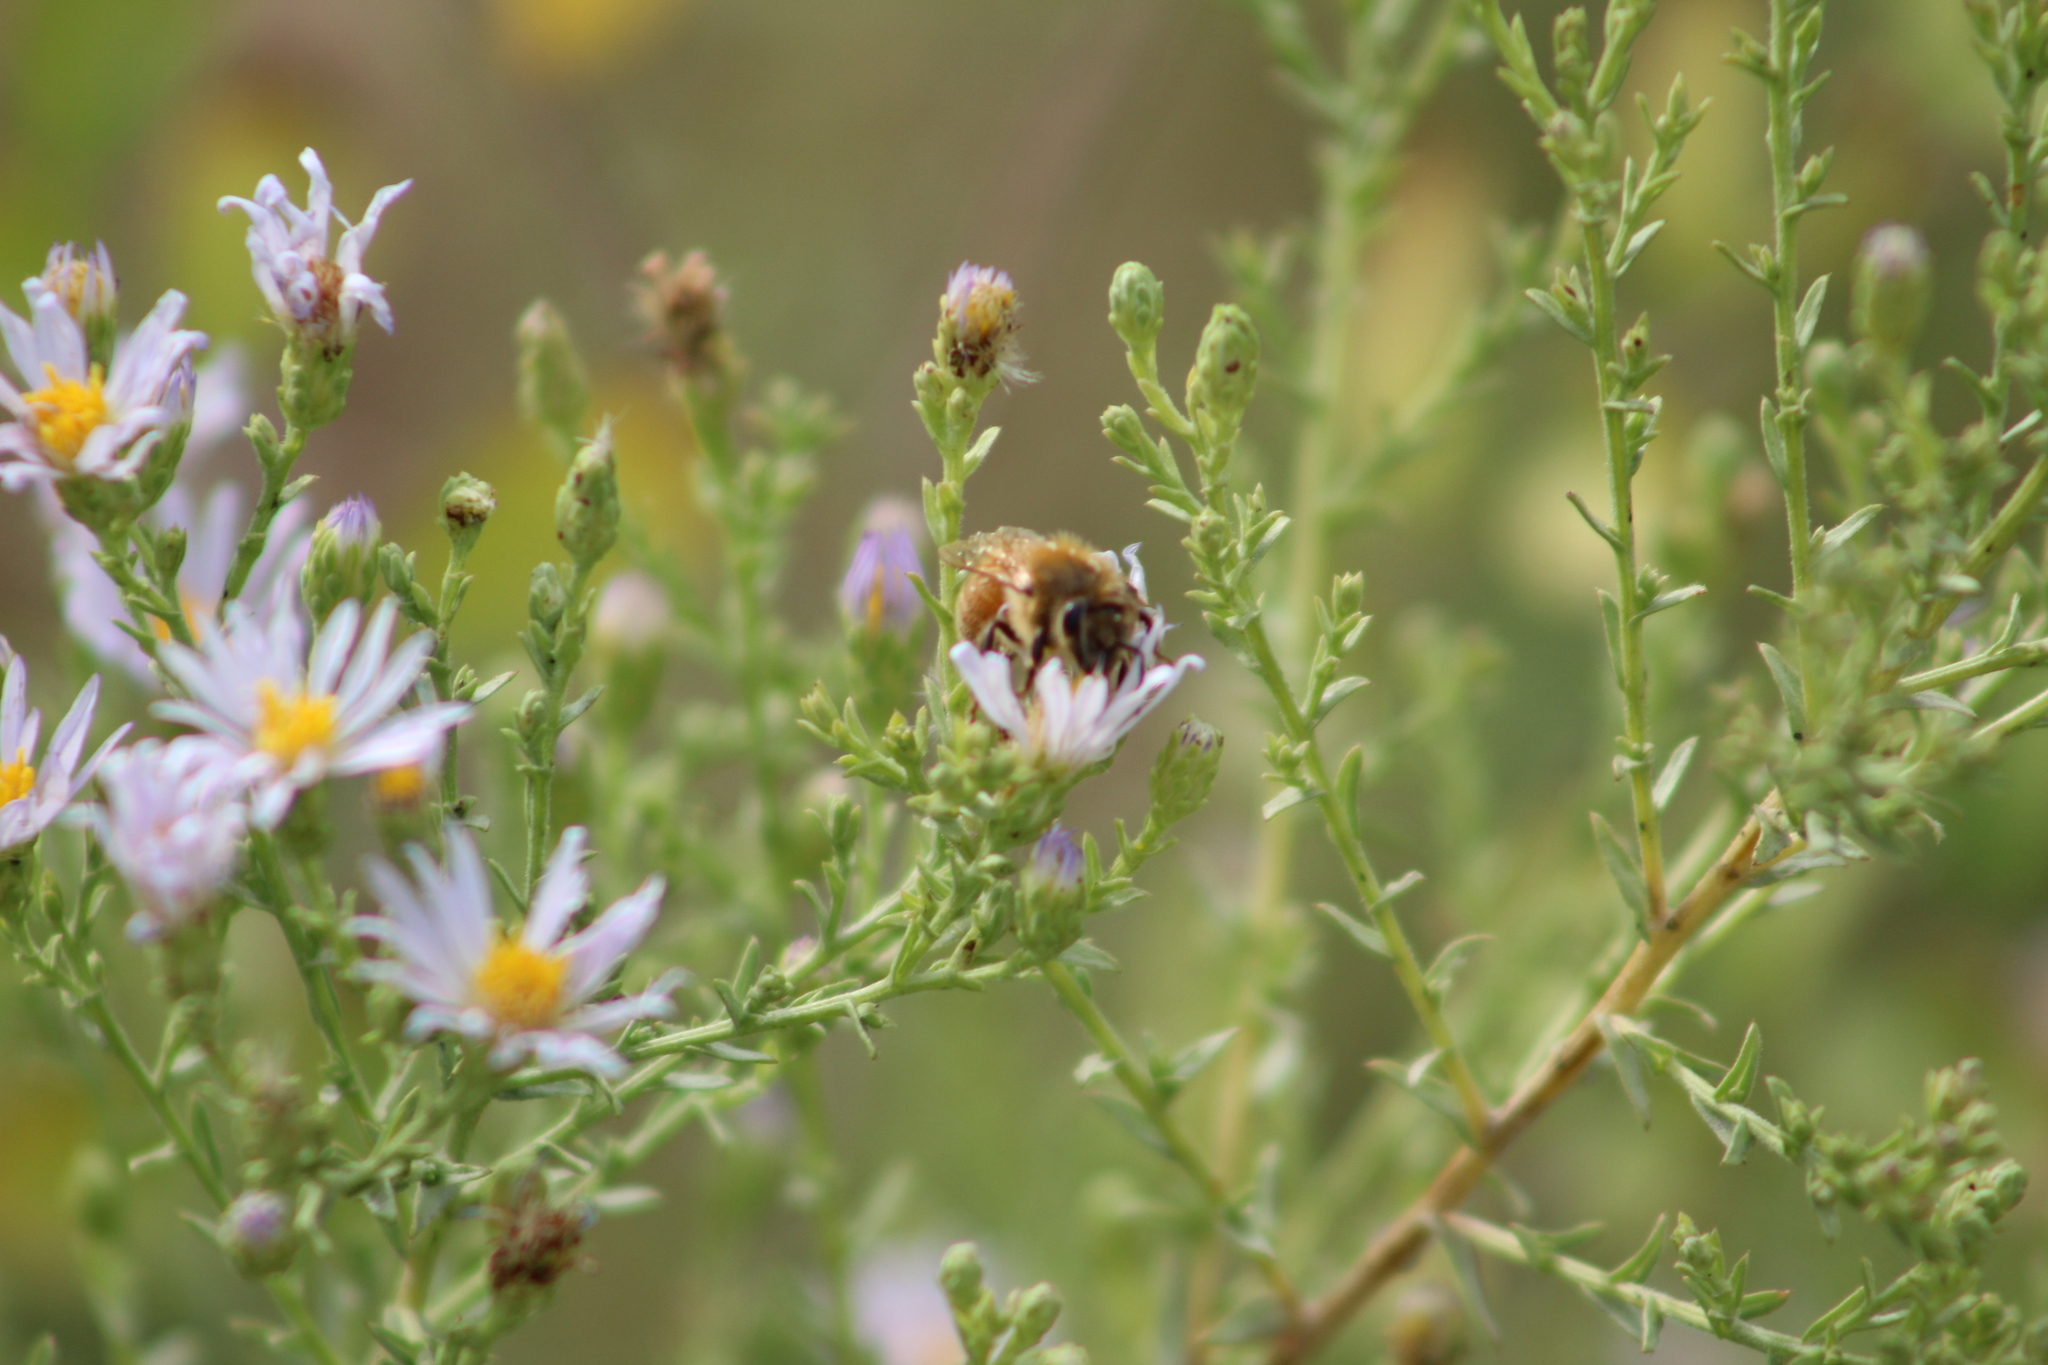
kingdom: Animalia
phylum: Arthropoda
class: Insecta
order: Hymenoptera
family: Apidae
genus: Apis
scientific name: Apis mellifera
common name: Honey bee
